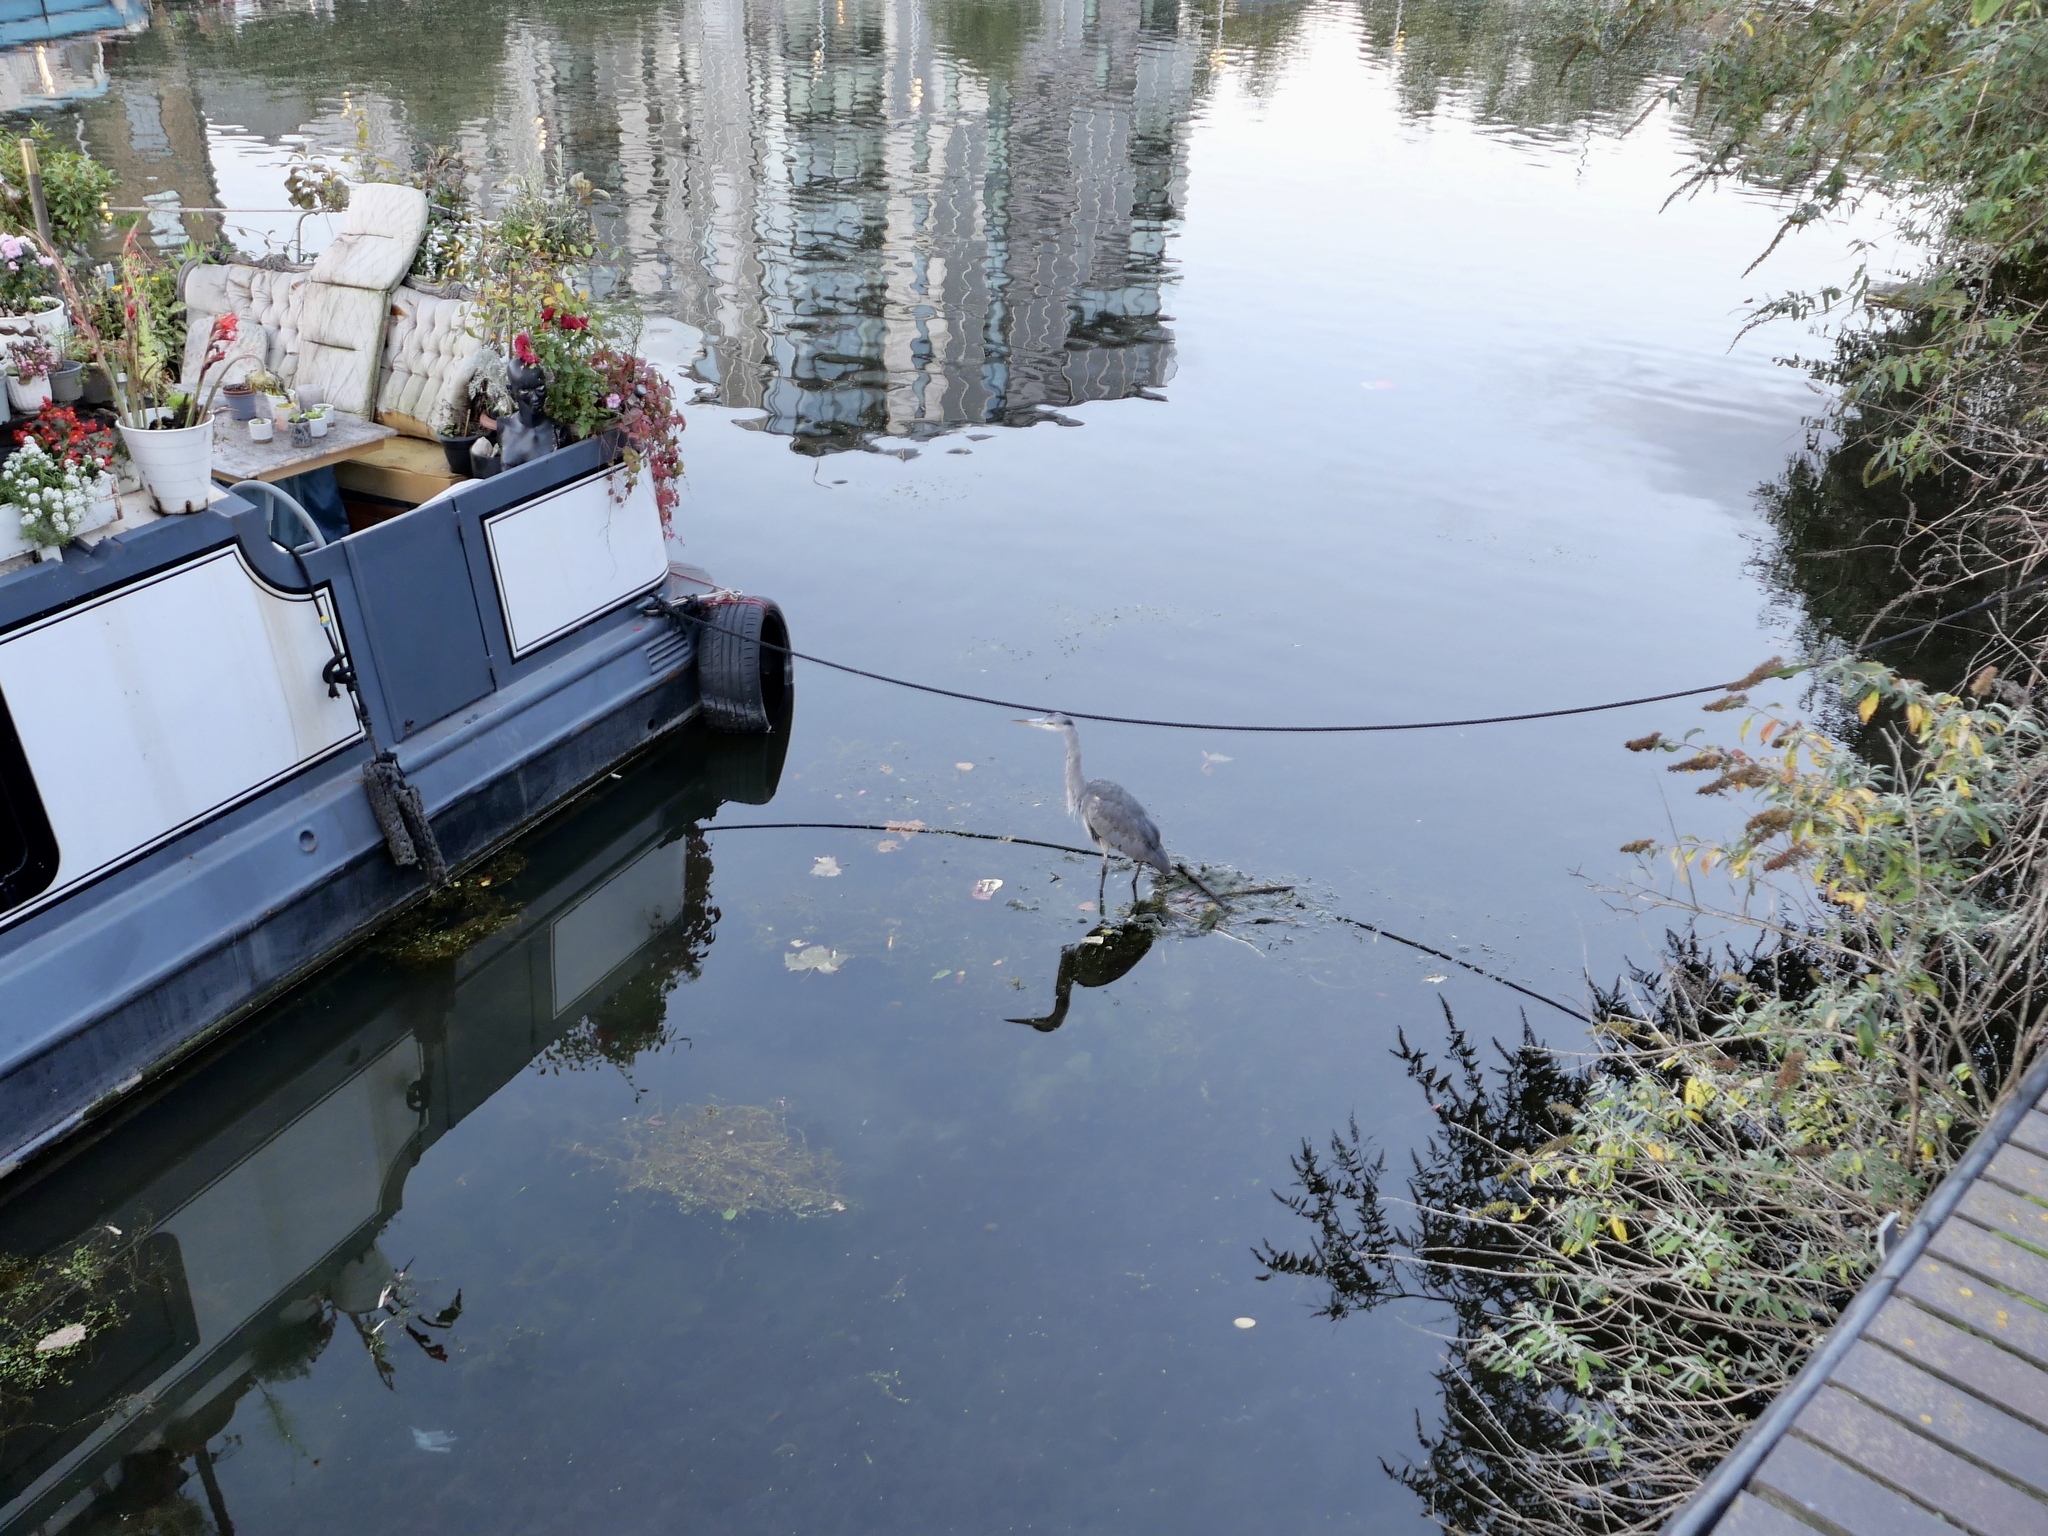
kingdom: Animalia
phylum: Chordata
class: Aves
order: Pelecaniformes
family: Ardeidae
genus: Ardea
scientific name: Ardea cinerea
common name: Grey heron
